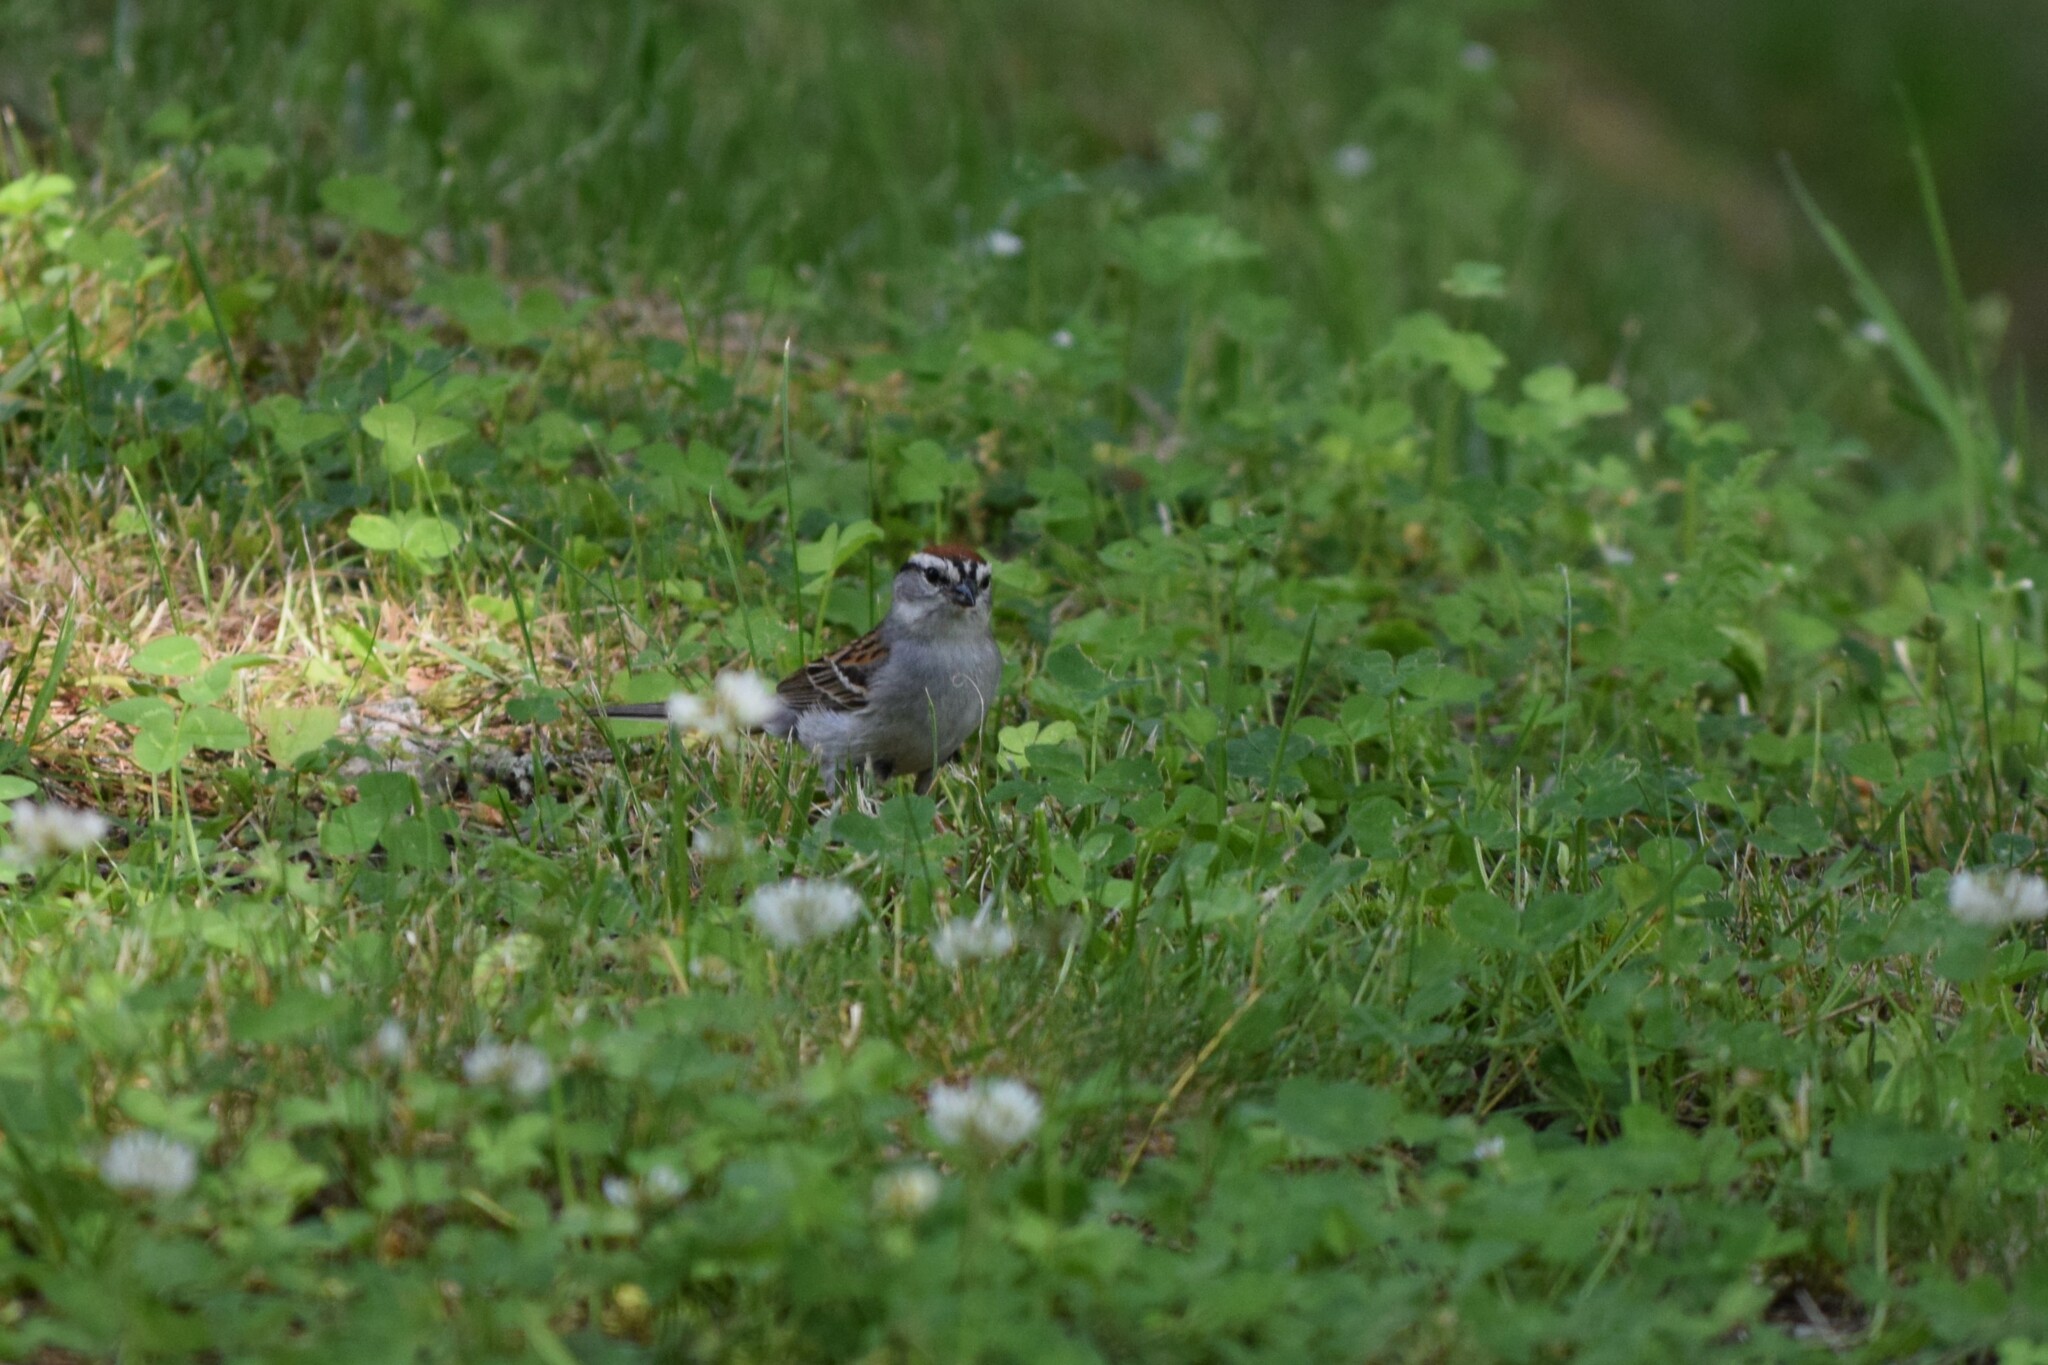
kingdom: Animalia
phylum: Chordata
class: Aves
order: Passeriformes
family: Passerellidae
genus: Spizella
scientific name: Spizella passerina
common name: Chipping sparrow
